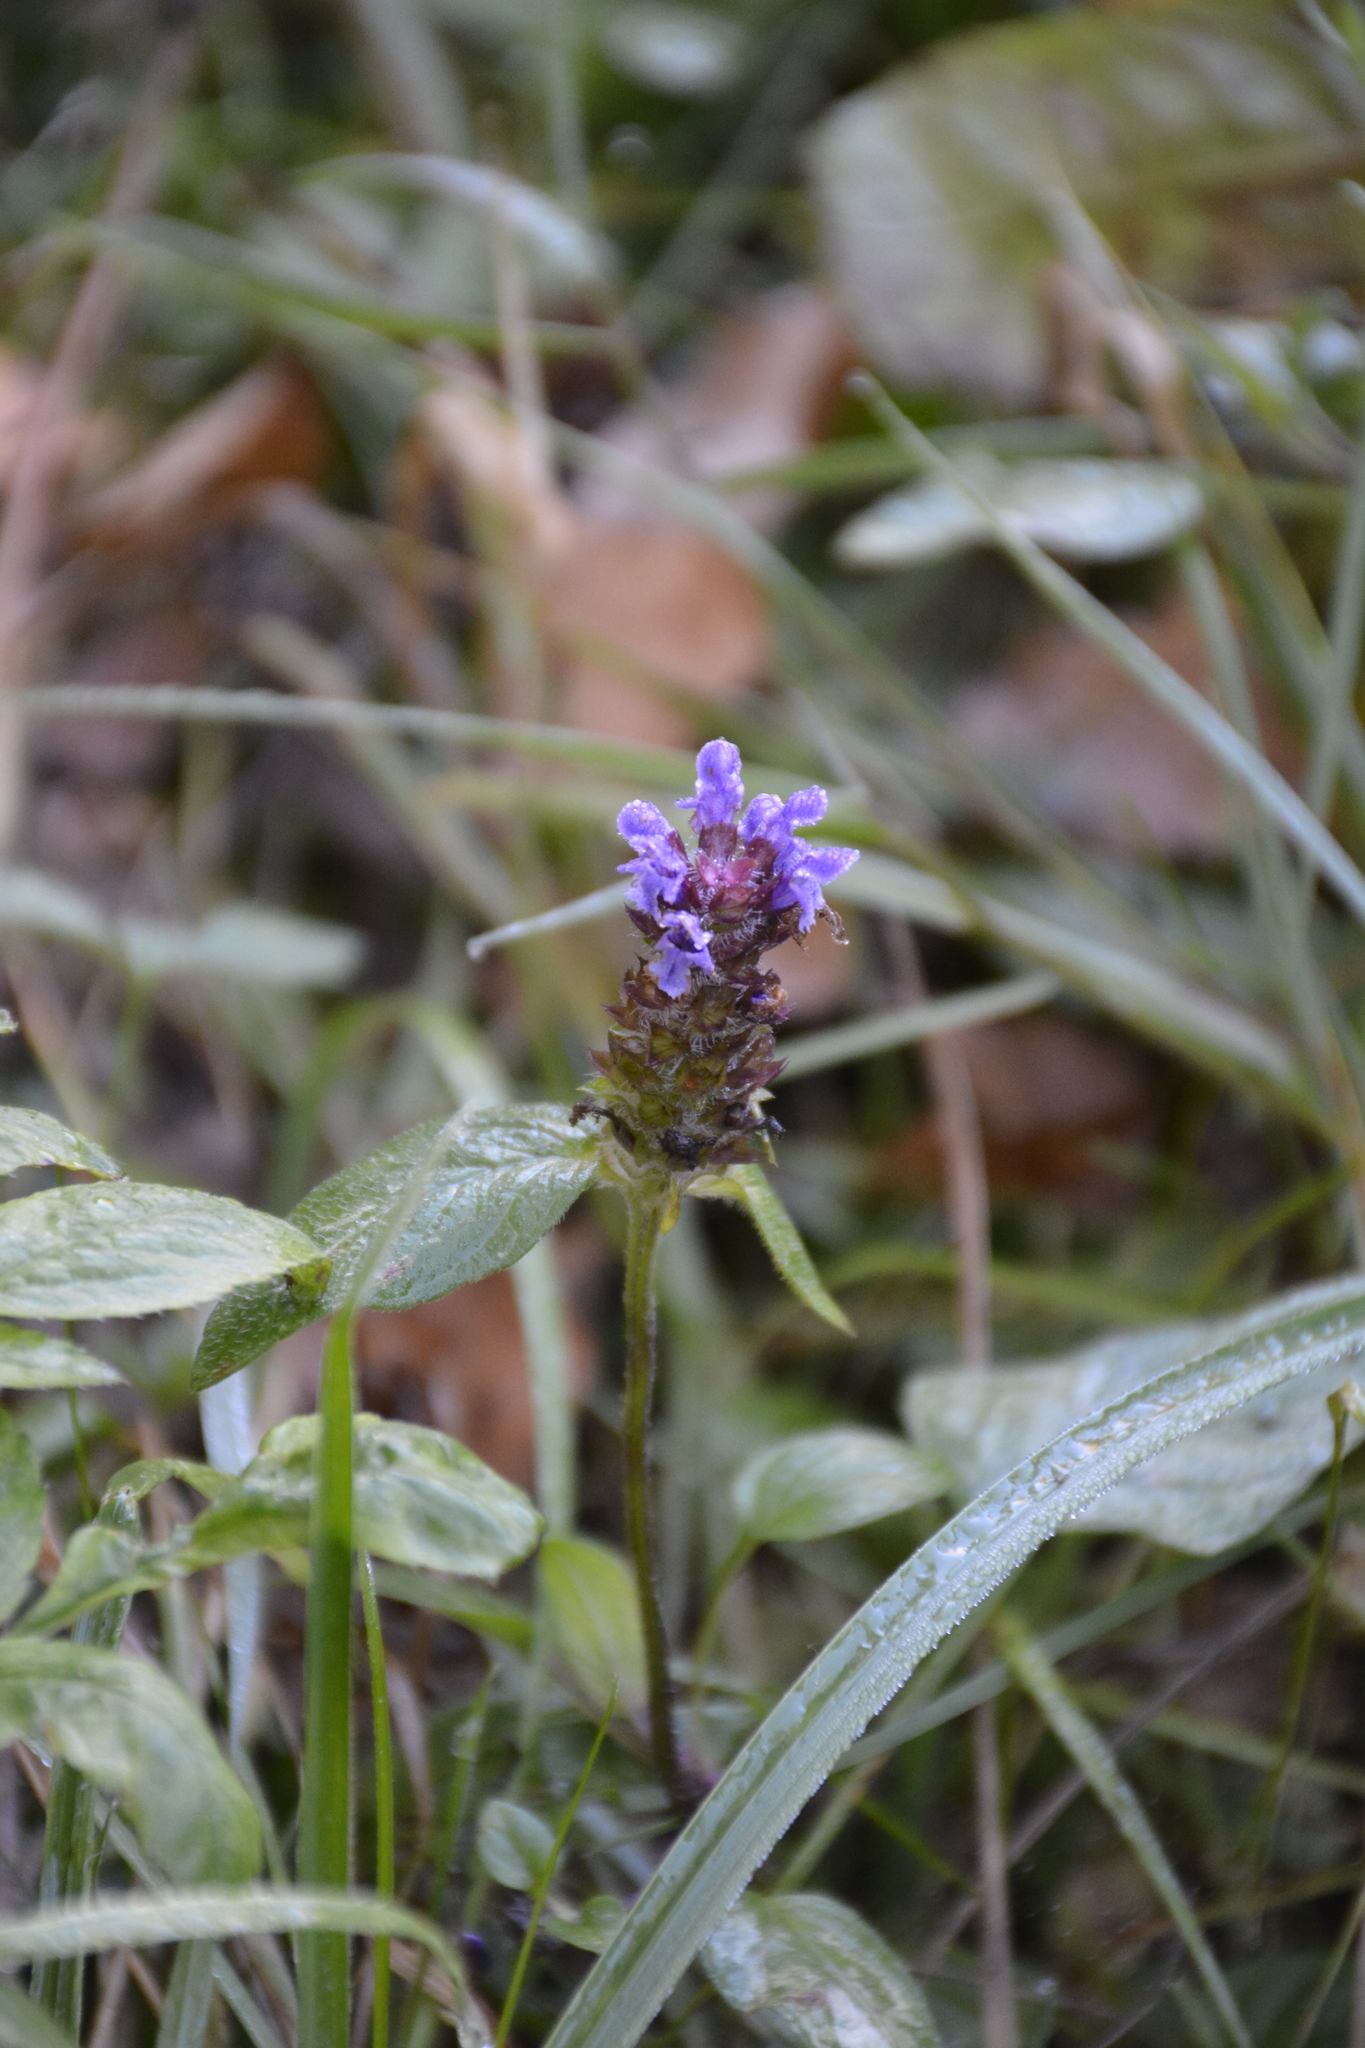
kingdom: Plantae
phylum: Tracheophyta
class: Magnoliopsida
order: Lamiales
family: Lamiaceae
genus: Prunella
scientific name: Prunella vulgaris
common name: Heal-all
